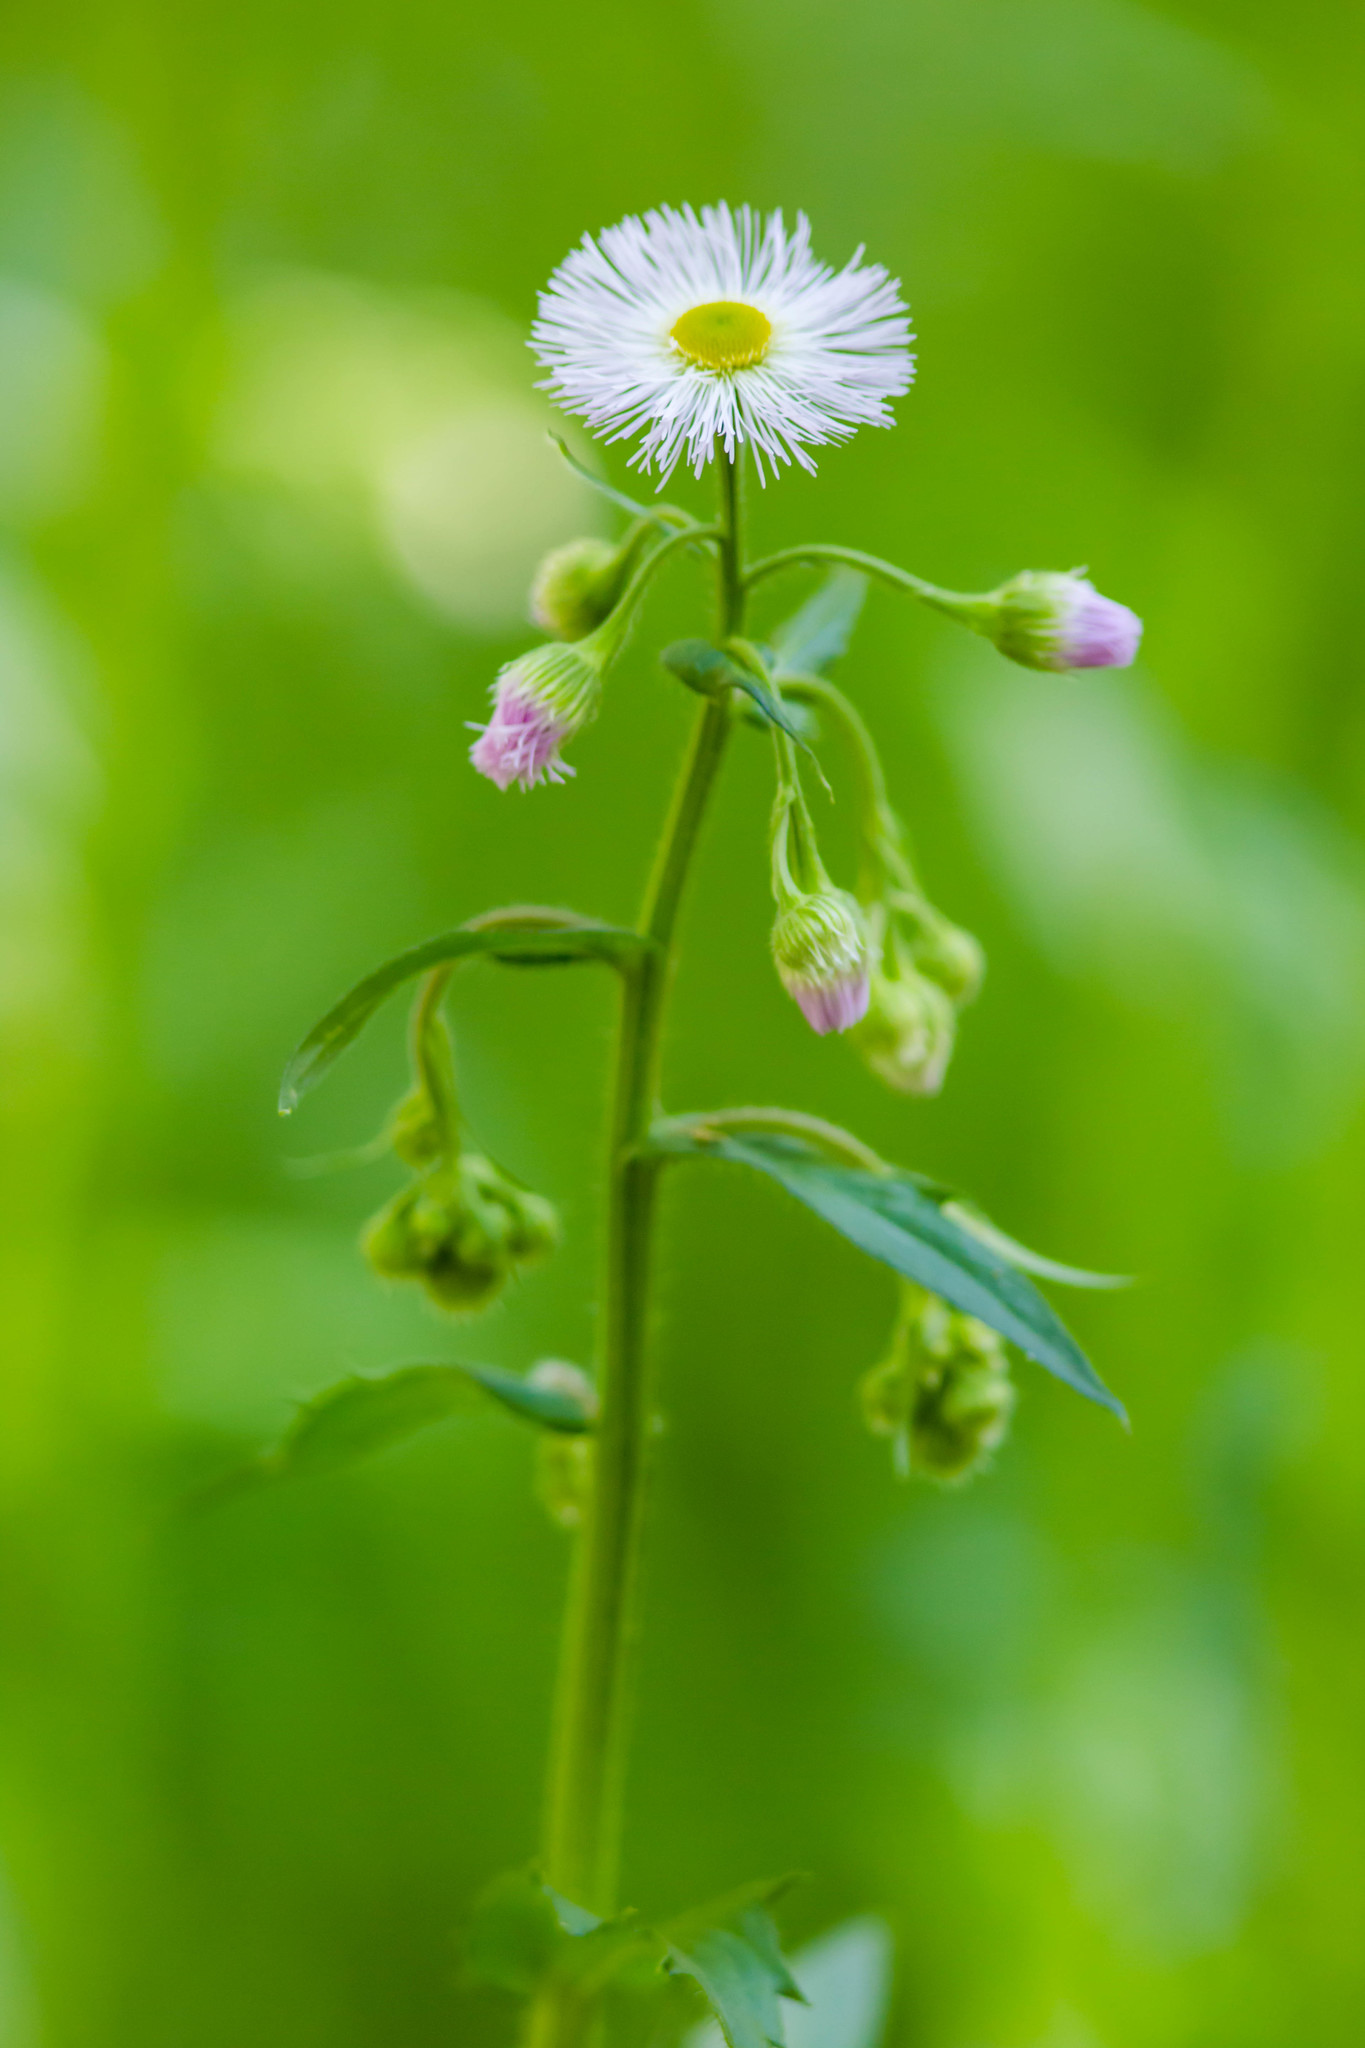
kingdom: Plantae
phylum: Tracheophyta
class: Magnoliopsida
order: Asterales
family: Asteraceae
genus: Erigeron
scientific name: Erigeron philadelphicus
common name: Robin's-plantain
